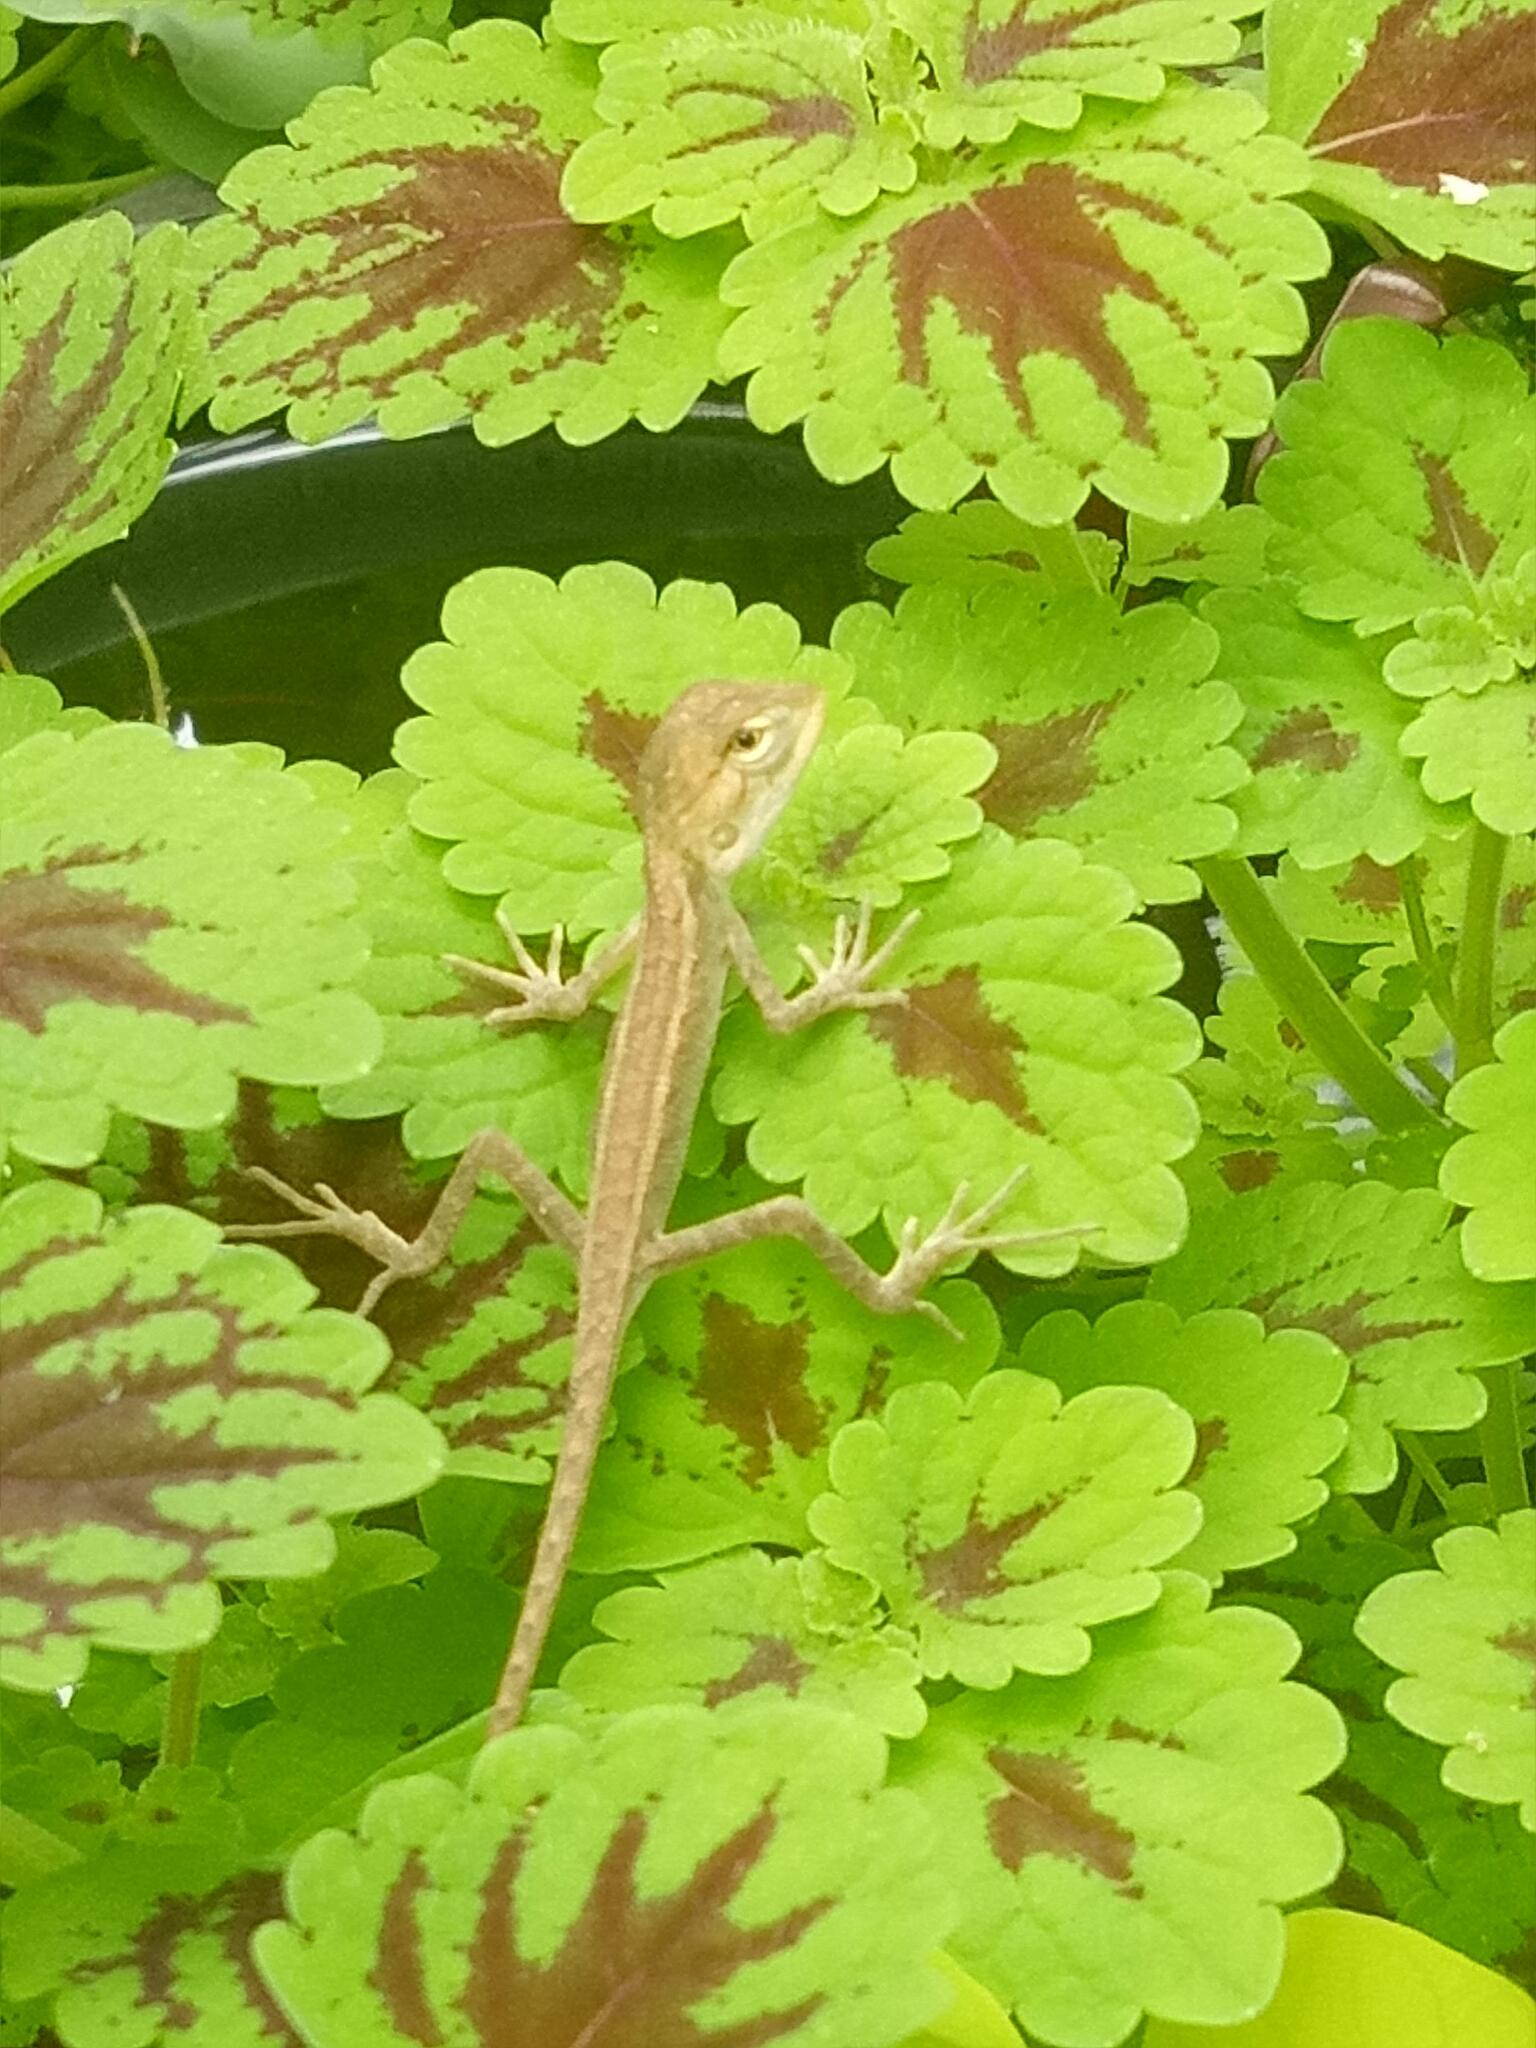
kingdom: Animalia
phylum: Chordata
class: Squamata
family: Agamidae
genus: Calotes
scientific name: Calotes versicolor
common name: Oriental garden lizard
